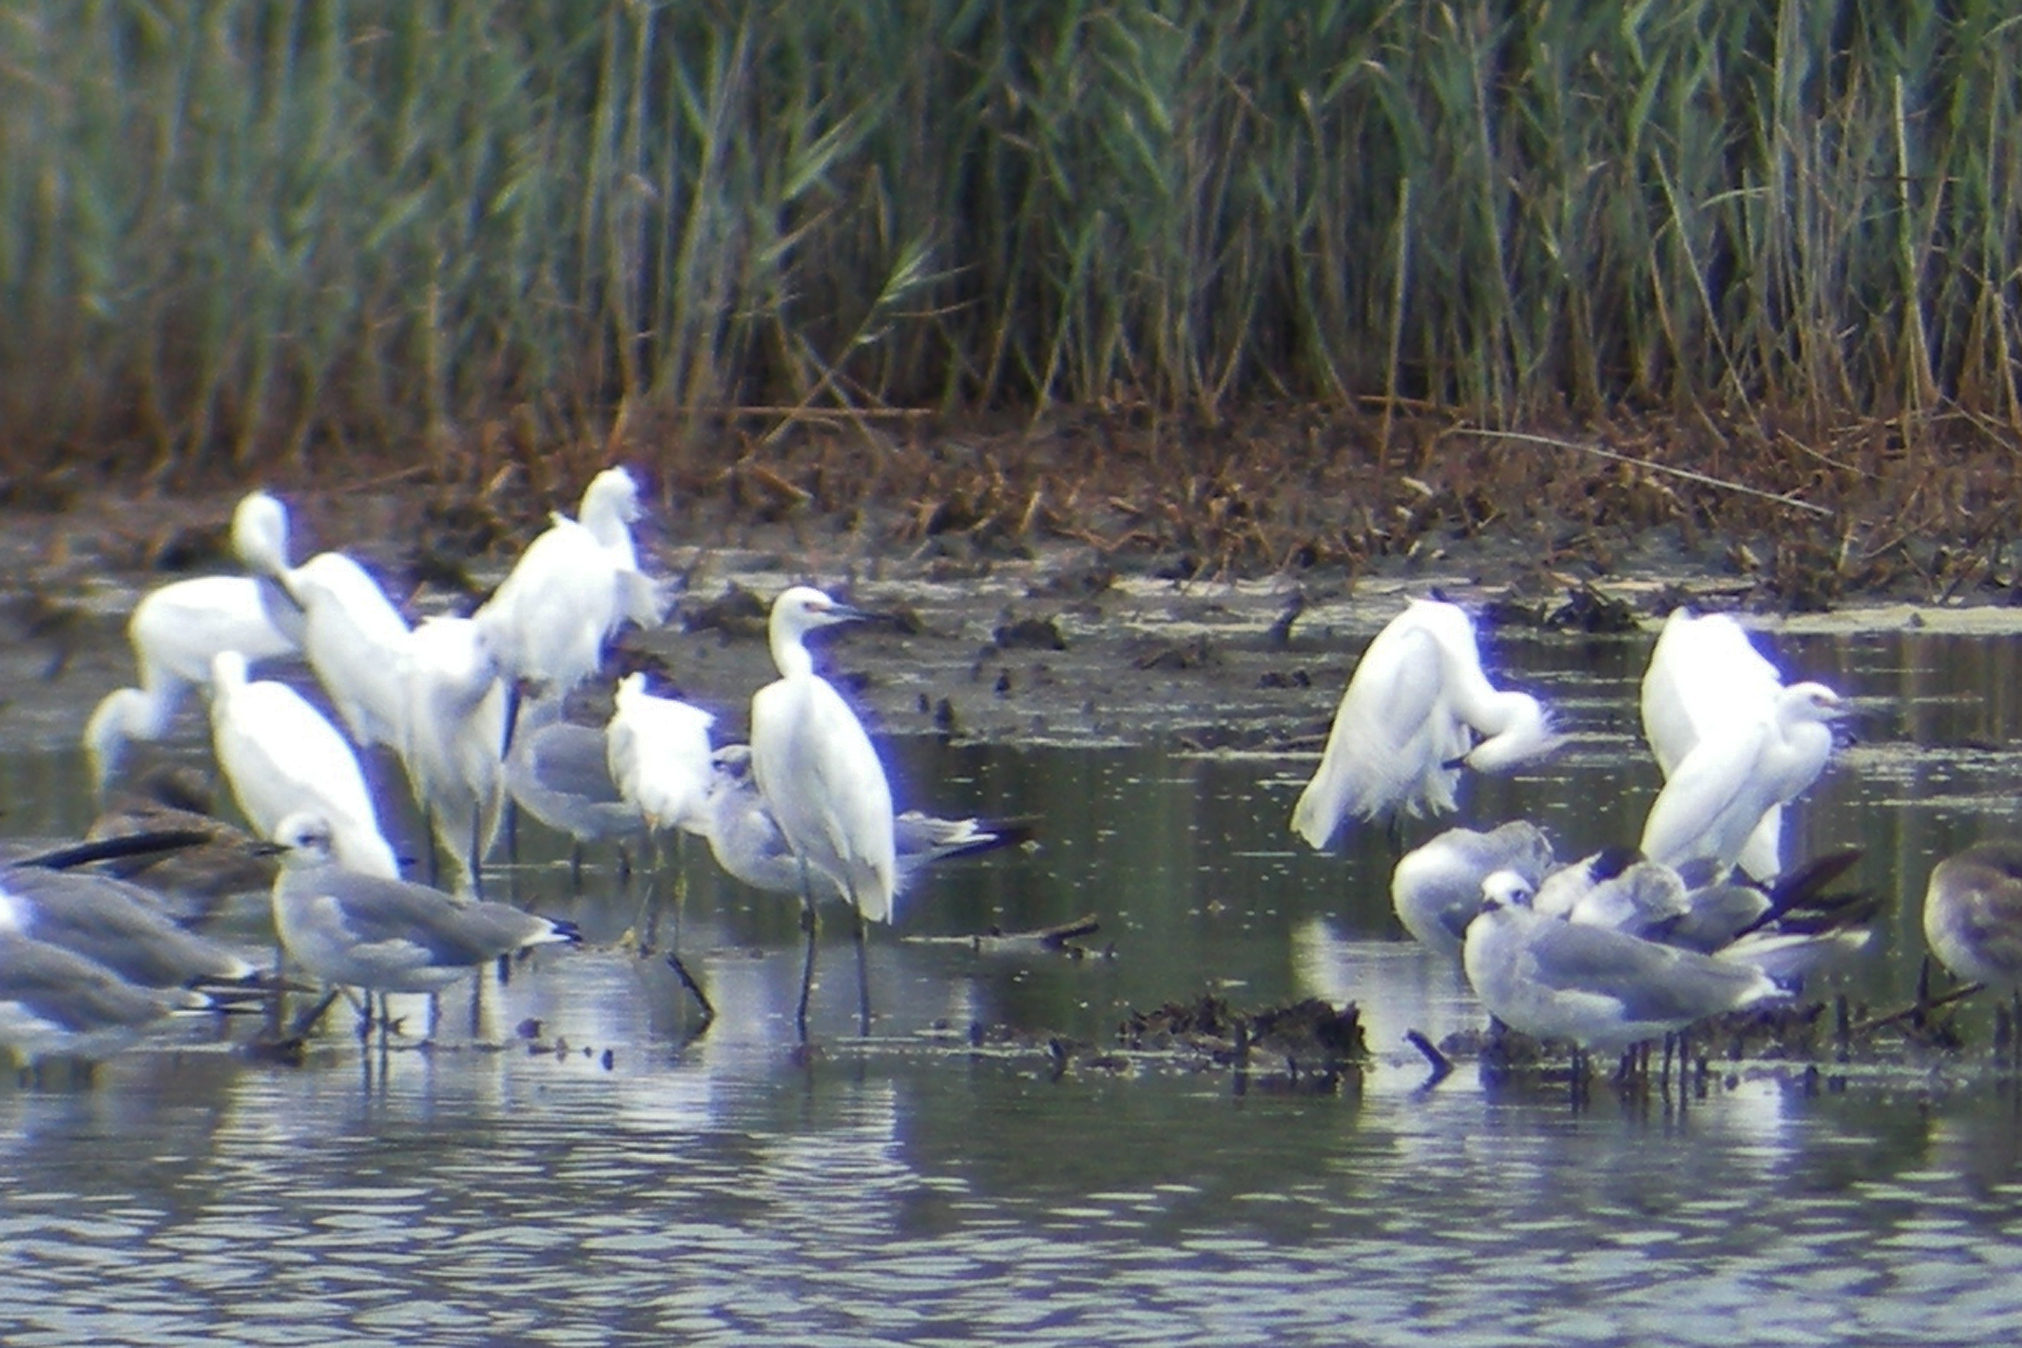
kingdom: Animalia
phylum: Chordata
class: Aves
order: Pelecaniformes
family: Ardeidae
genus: Egretta
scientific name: Egretta thula
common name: Snowy egret
